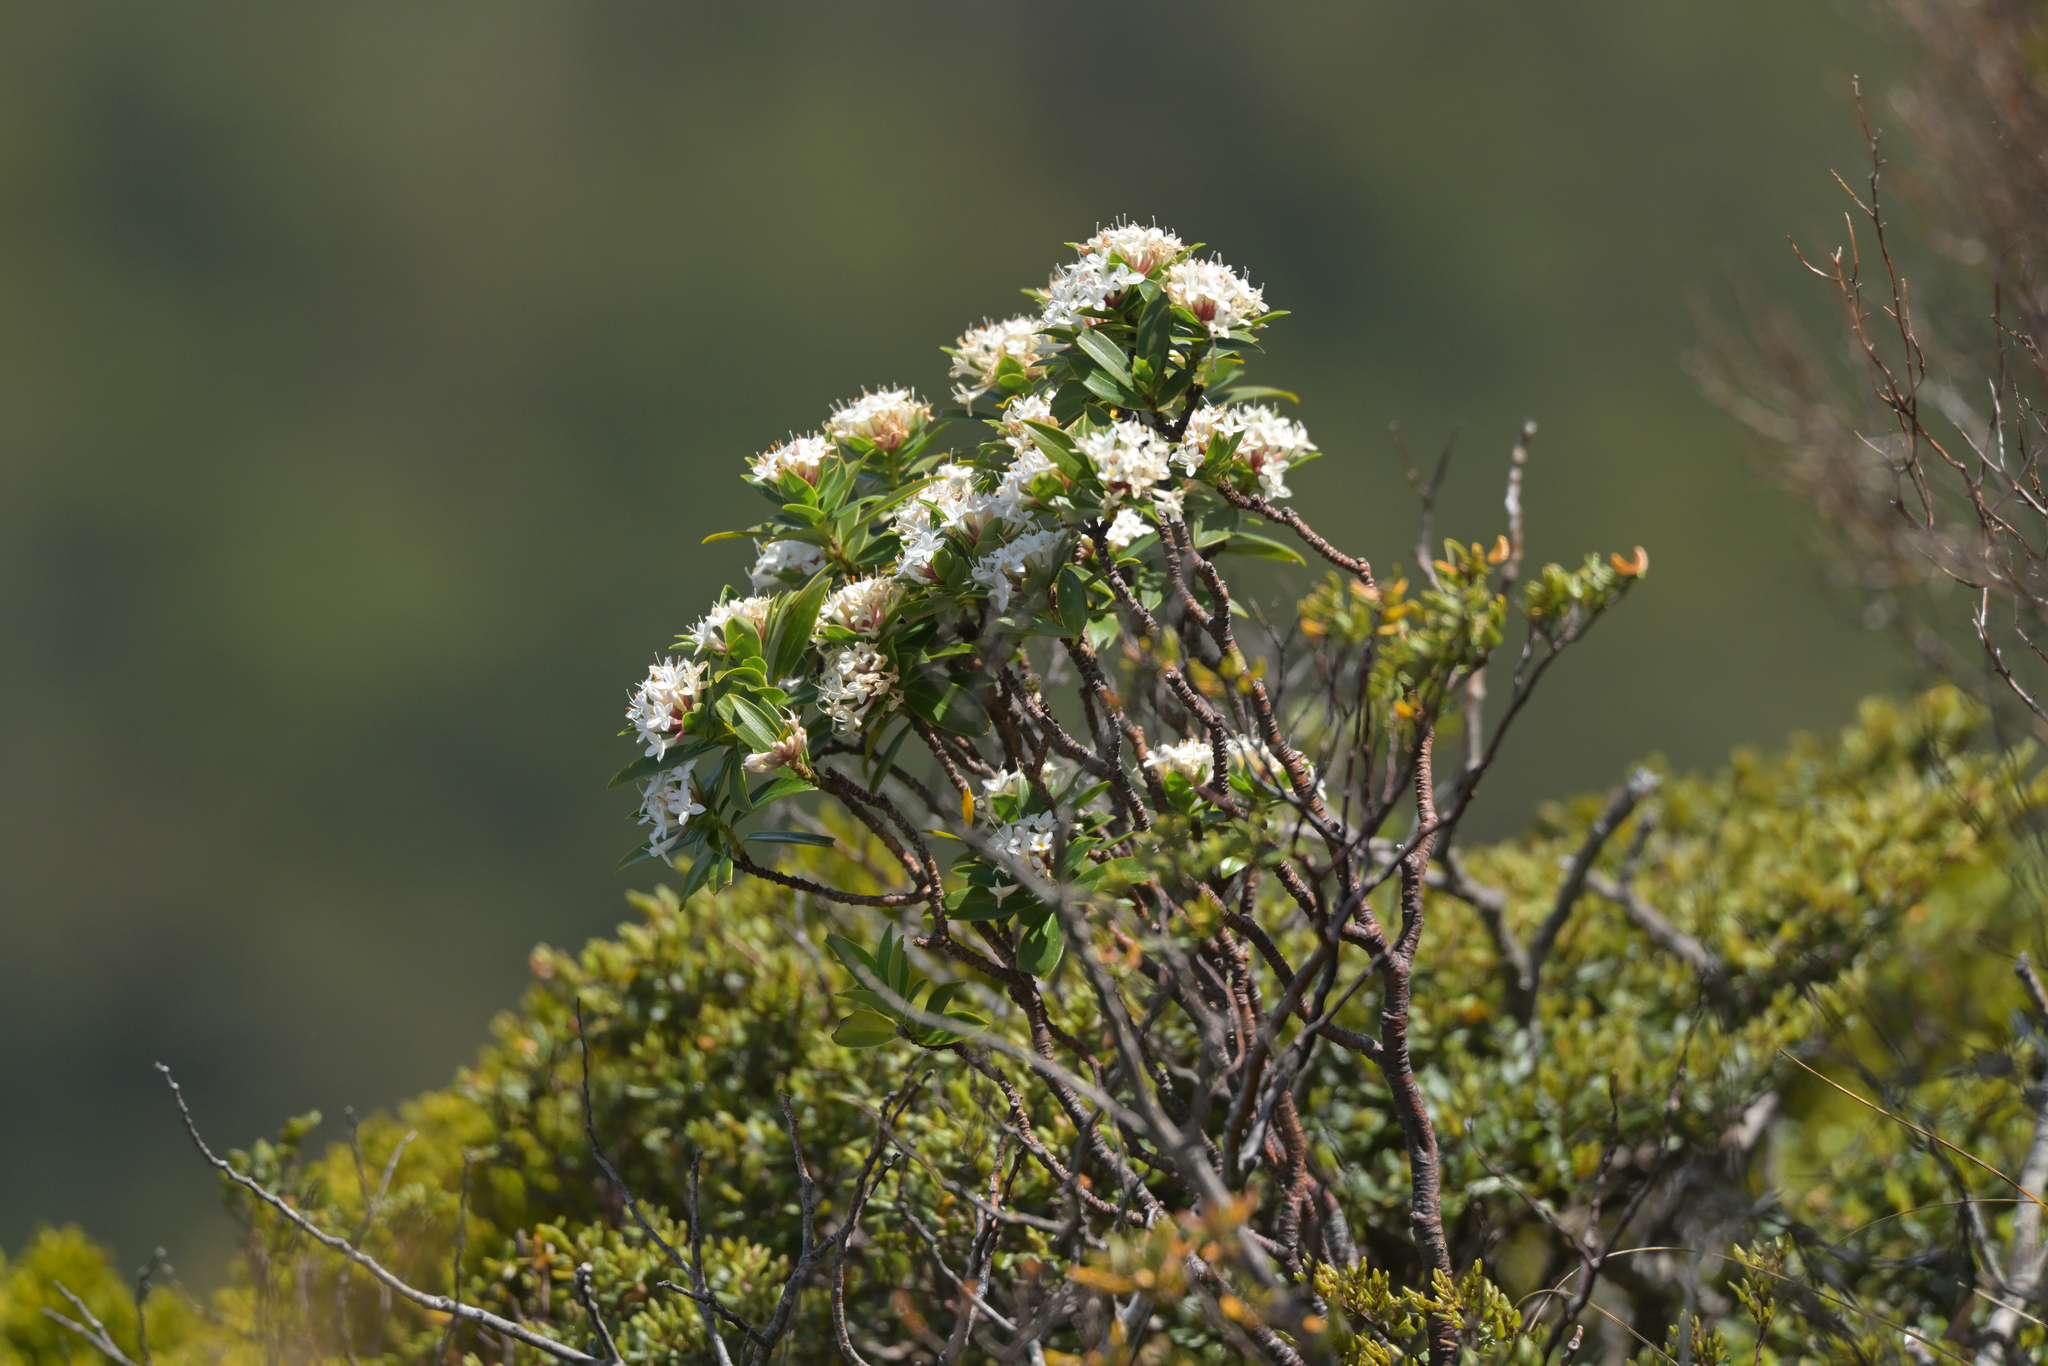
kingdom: Plantae
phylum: Tracheophyta
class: Magnoliopsida
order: Malvales
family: Thymelaeaceae
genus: Pimelea
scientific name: Pimelea longifolia
